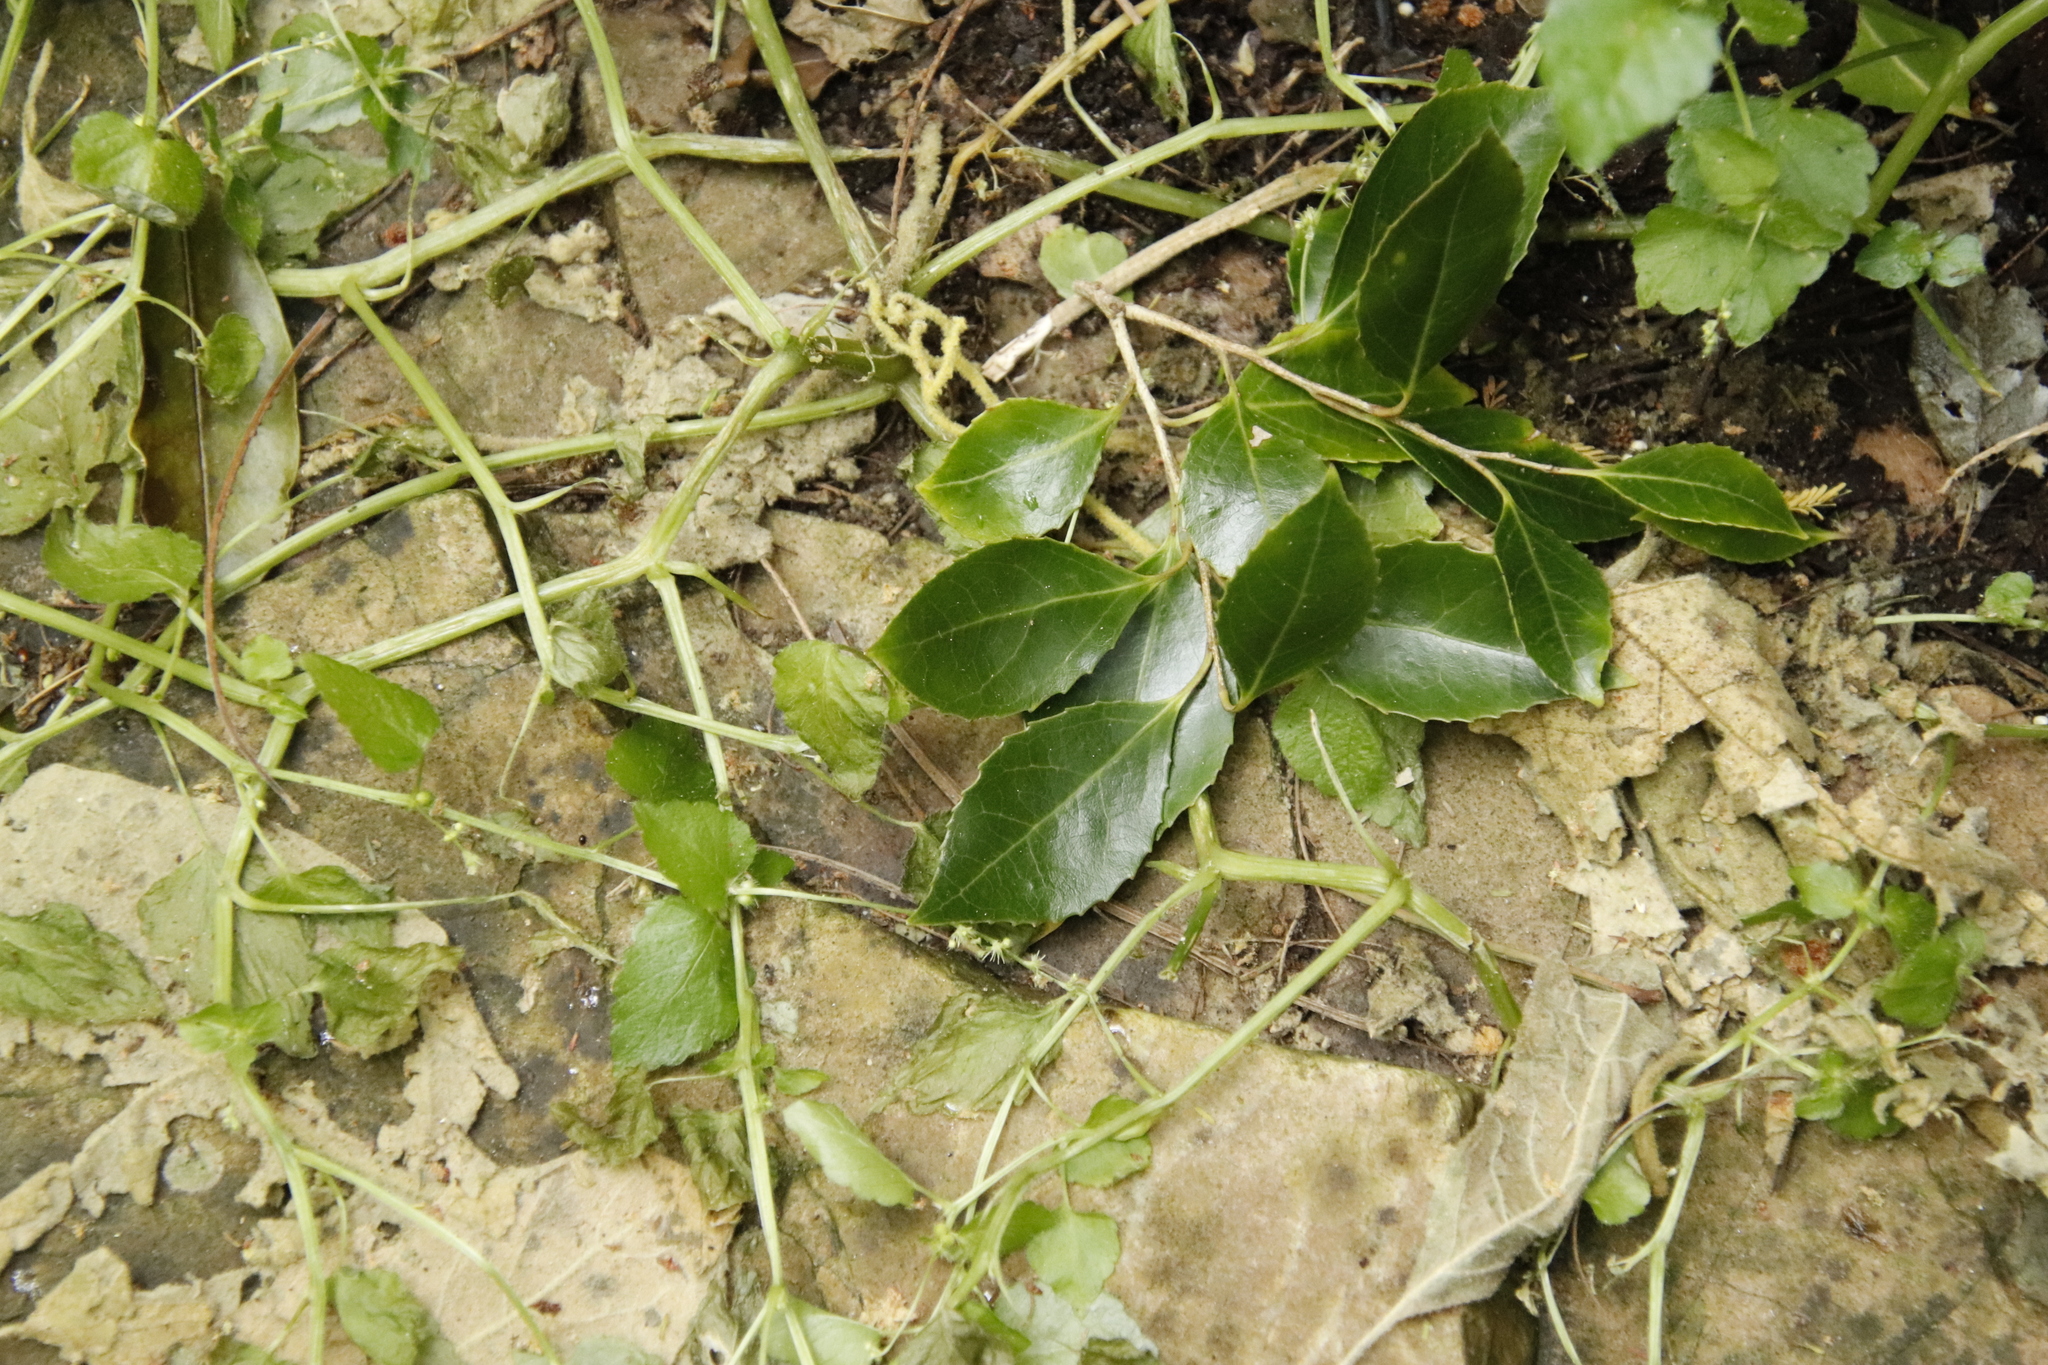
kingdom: Plantae
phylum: Tracheophyta
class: Magnoliopsida
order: Malpighiales
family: Euphorbiaceae
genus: Leidesia
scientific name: Leidesia procumbens
